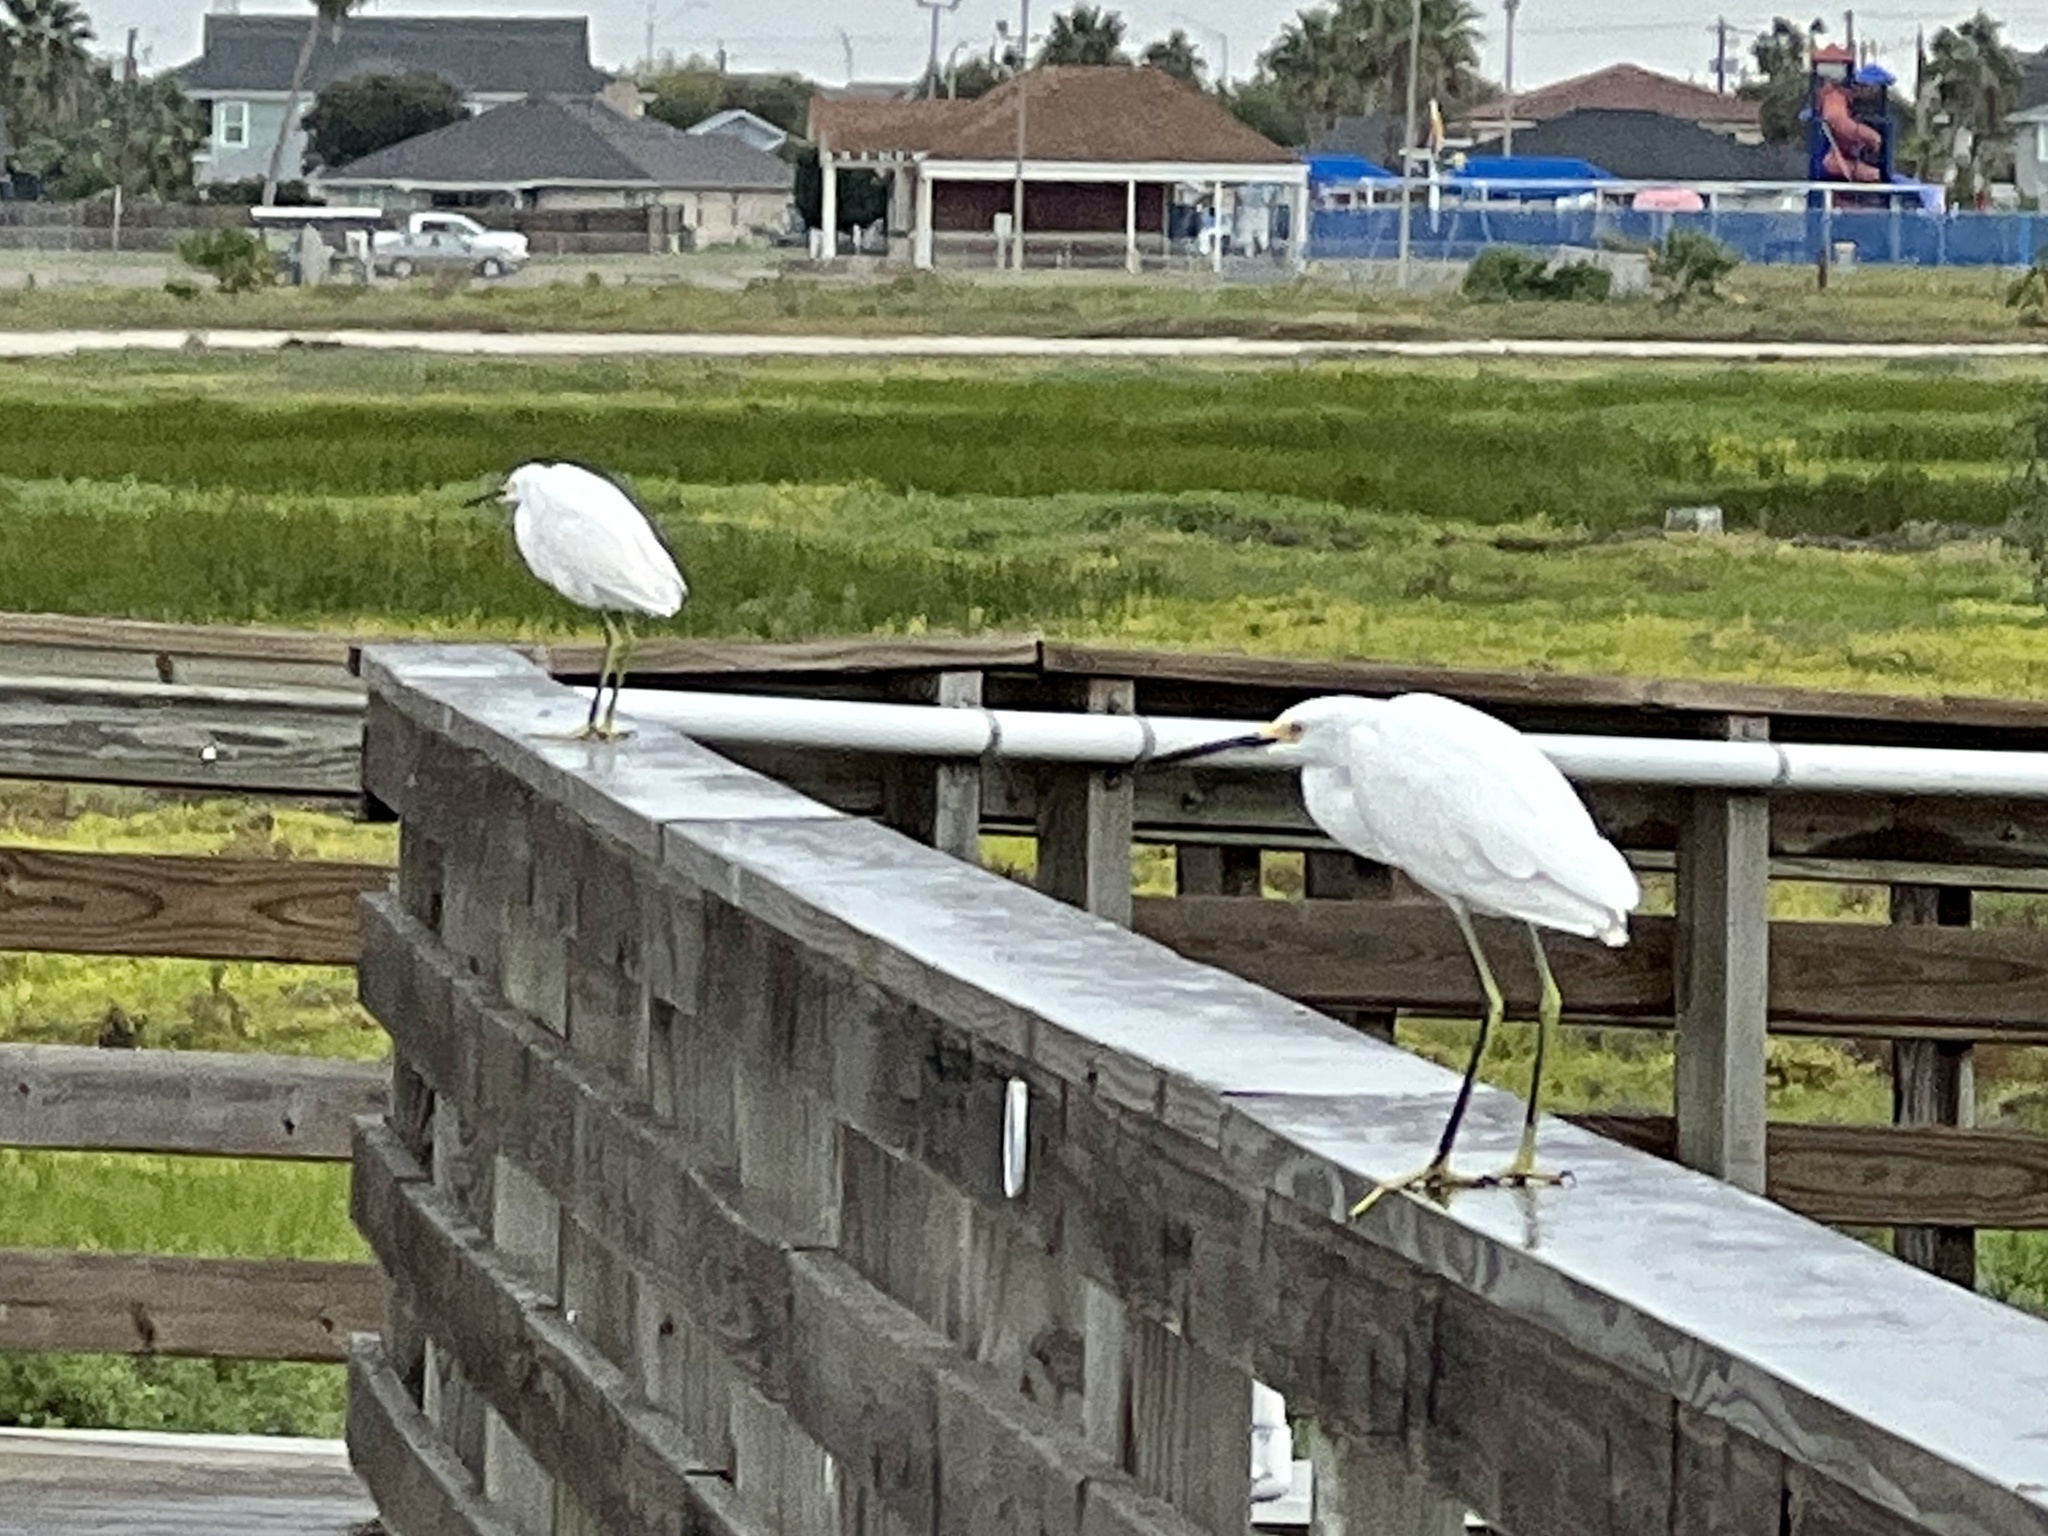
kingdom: Animalia
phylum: Chordata
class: Aves
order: Pelecaniformes
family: Ardeidae
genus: Egretta
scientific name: Egretta thula
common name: Snowy egret
